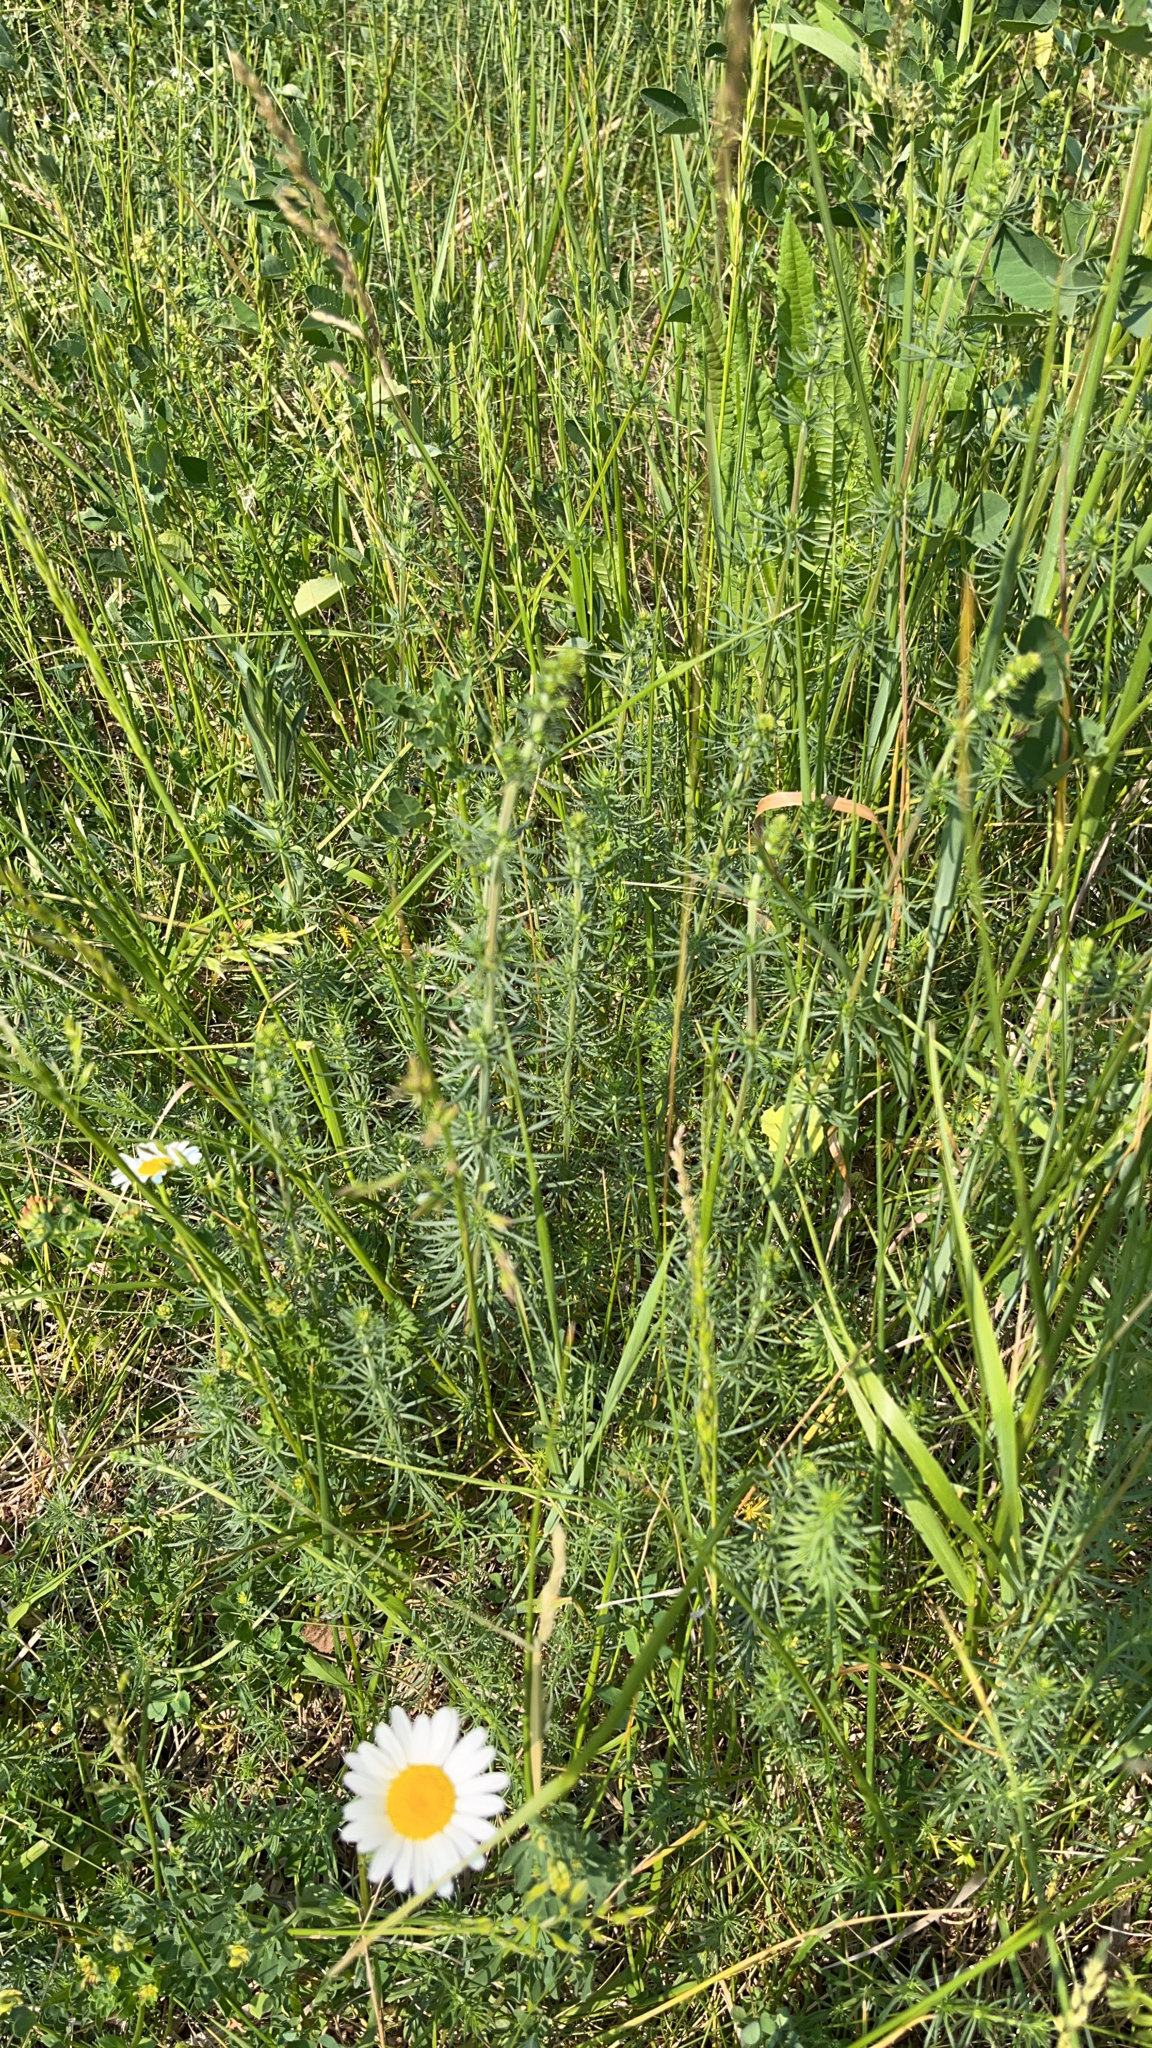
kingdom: Plantae
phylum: Tracheophyta
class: Magnoliopsida
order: Gentianales
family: Rubiaceae
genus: Galium
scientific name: Galium verum
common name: Lady's bedstraw
